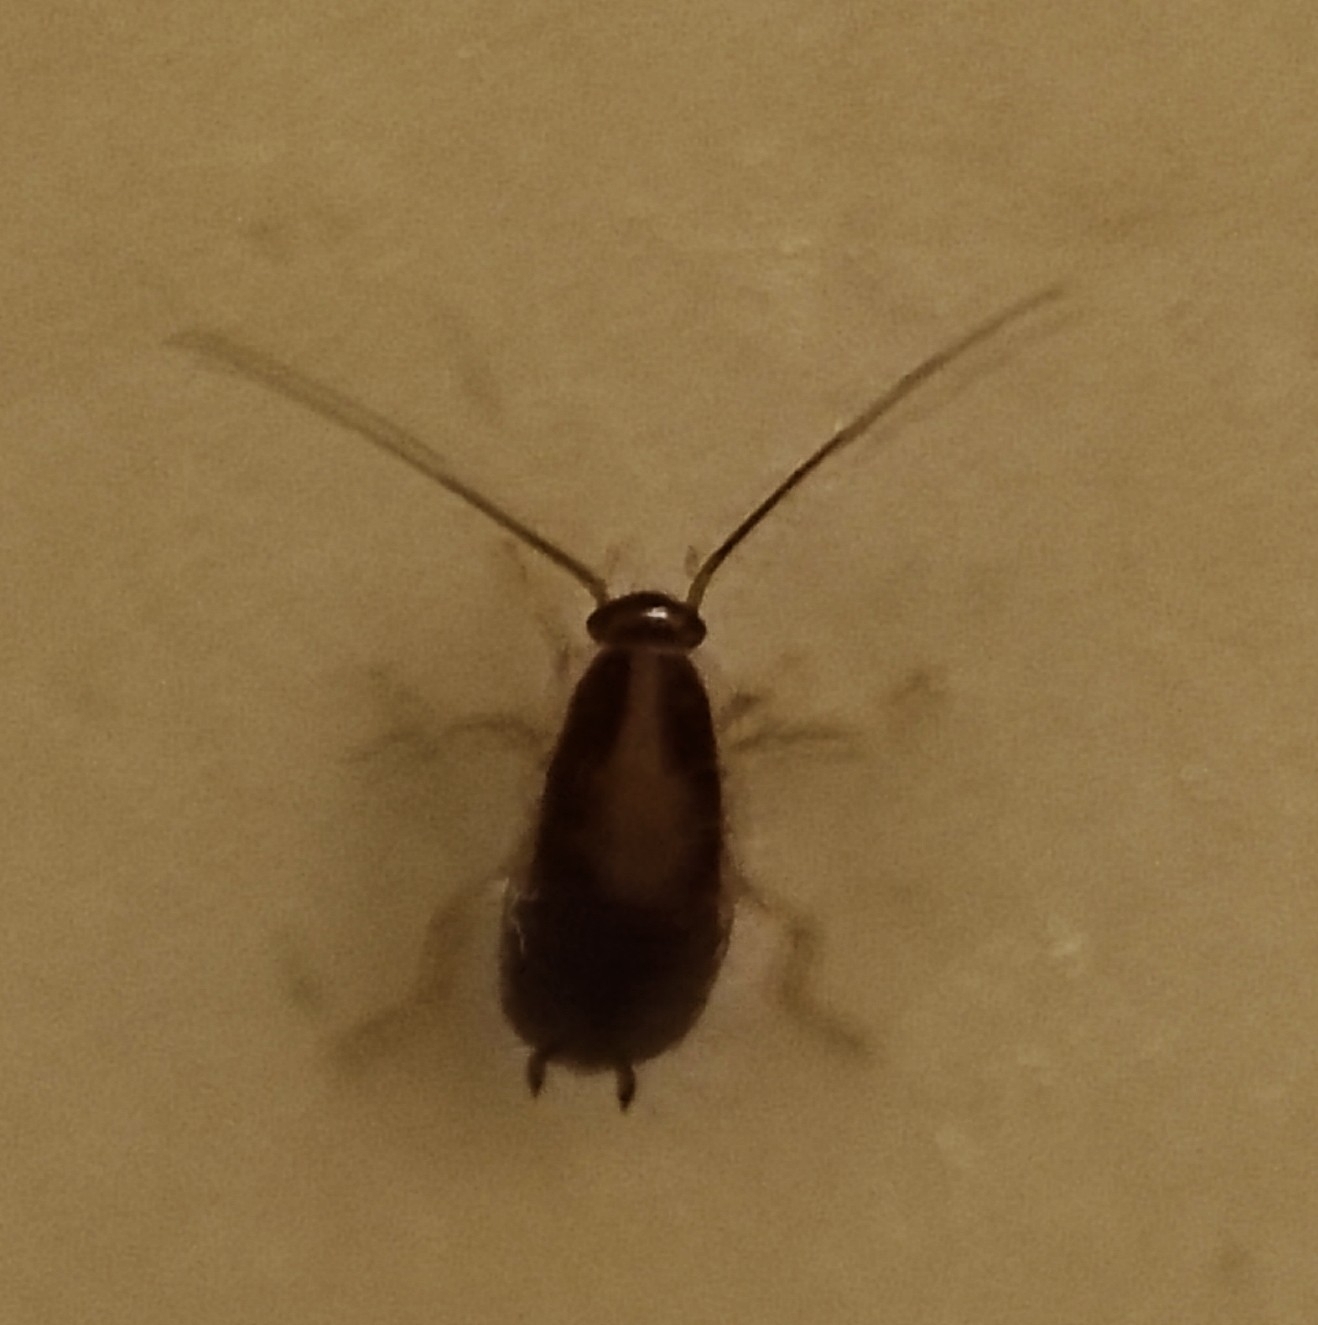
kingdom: Animalia
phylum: Arthropoda
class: Insecta
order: Blattodea
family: Ectobiidae
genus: Blattella
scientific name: Blattella germanica
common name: German cockroach
